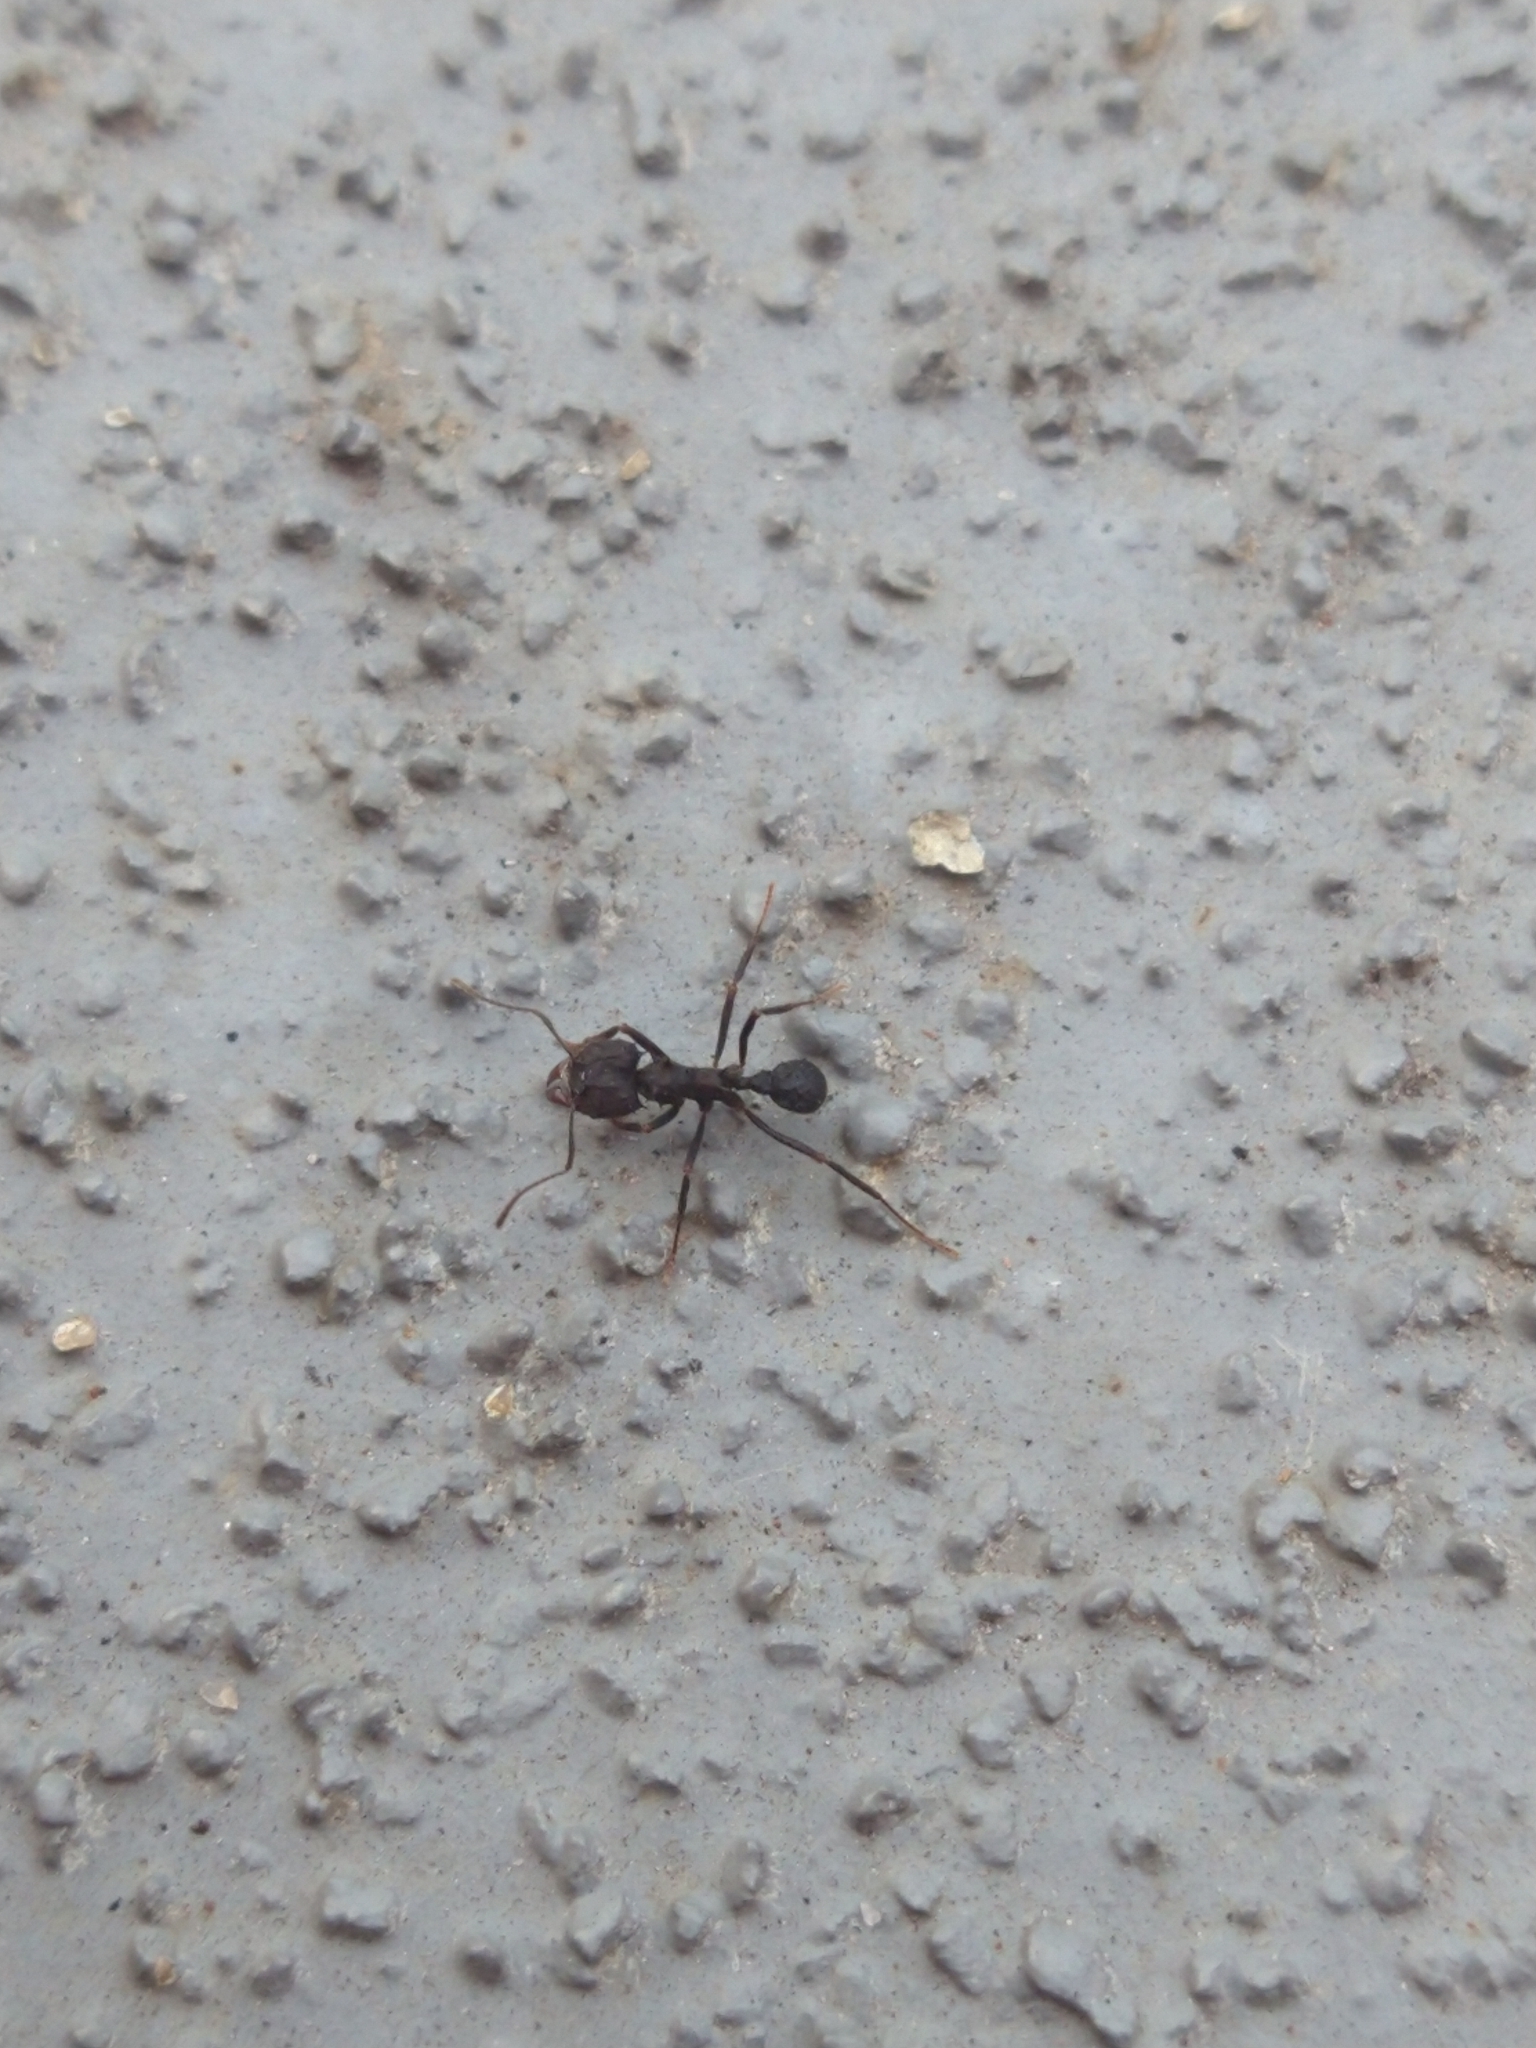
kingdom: Animalia
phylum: Arthropoda
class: Insecta
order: Hymenoptera
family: Formicidae
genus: Acromyrmex
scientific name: Acromyrmex
